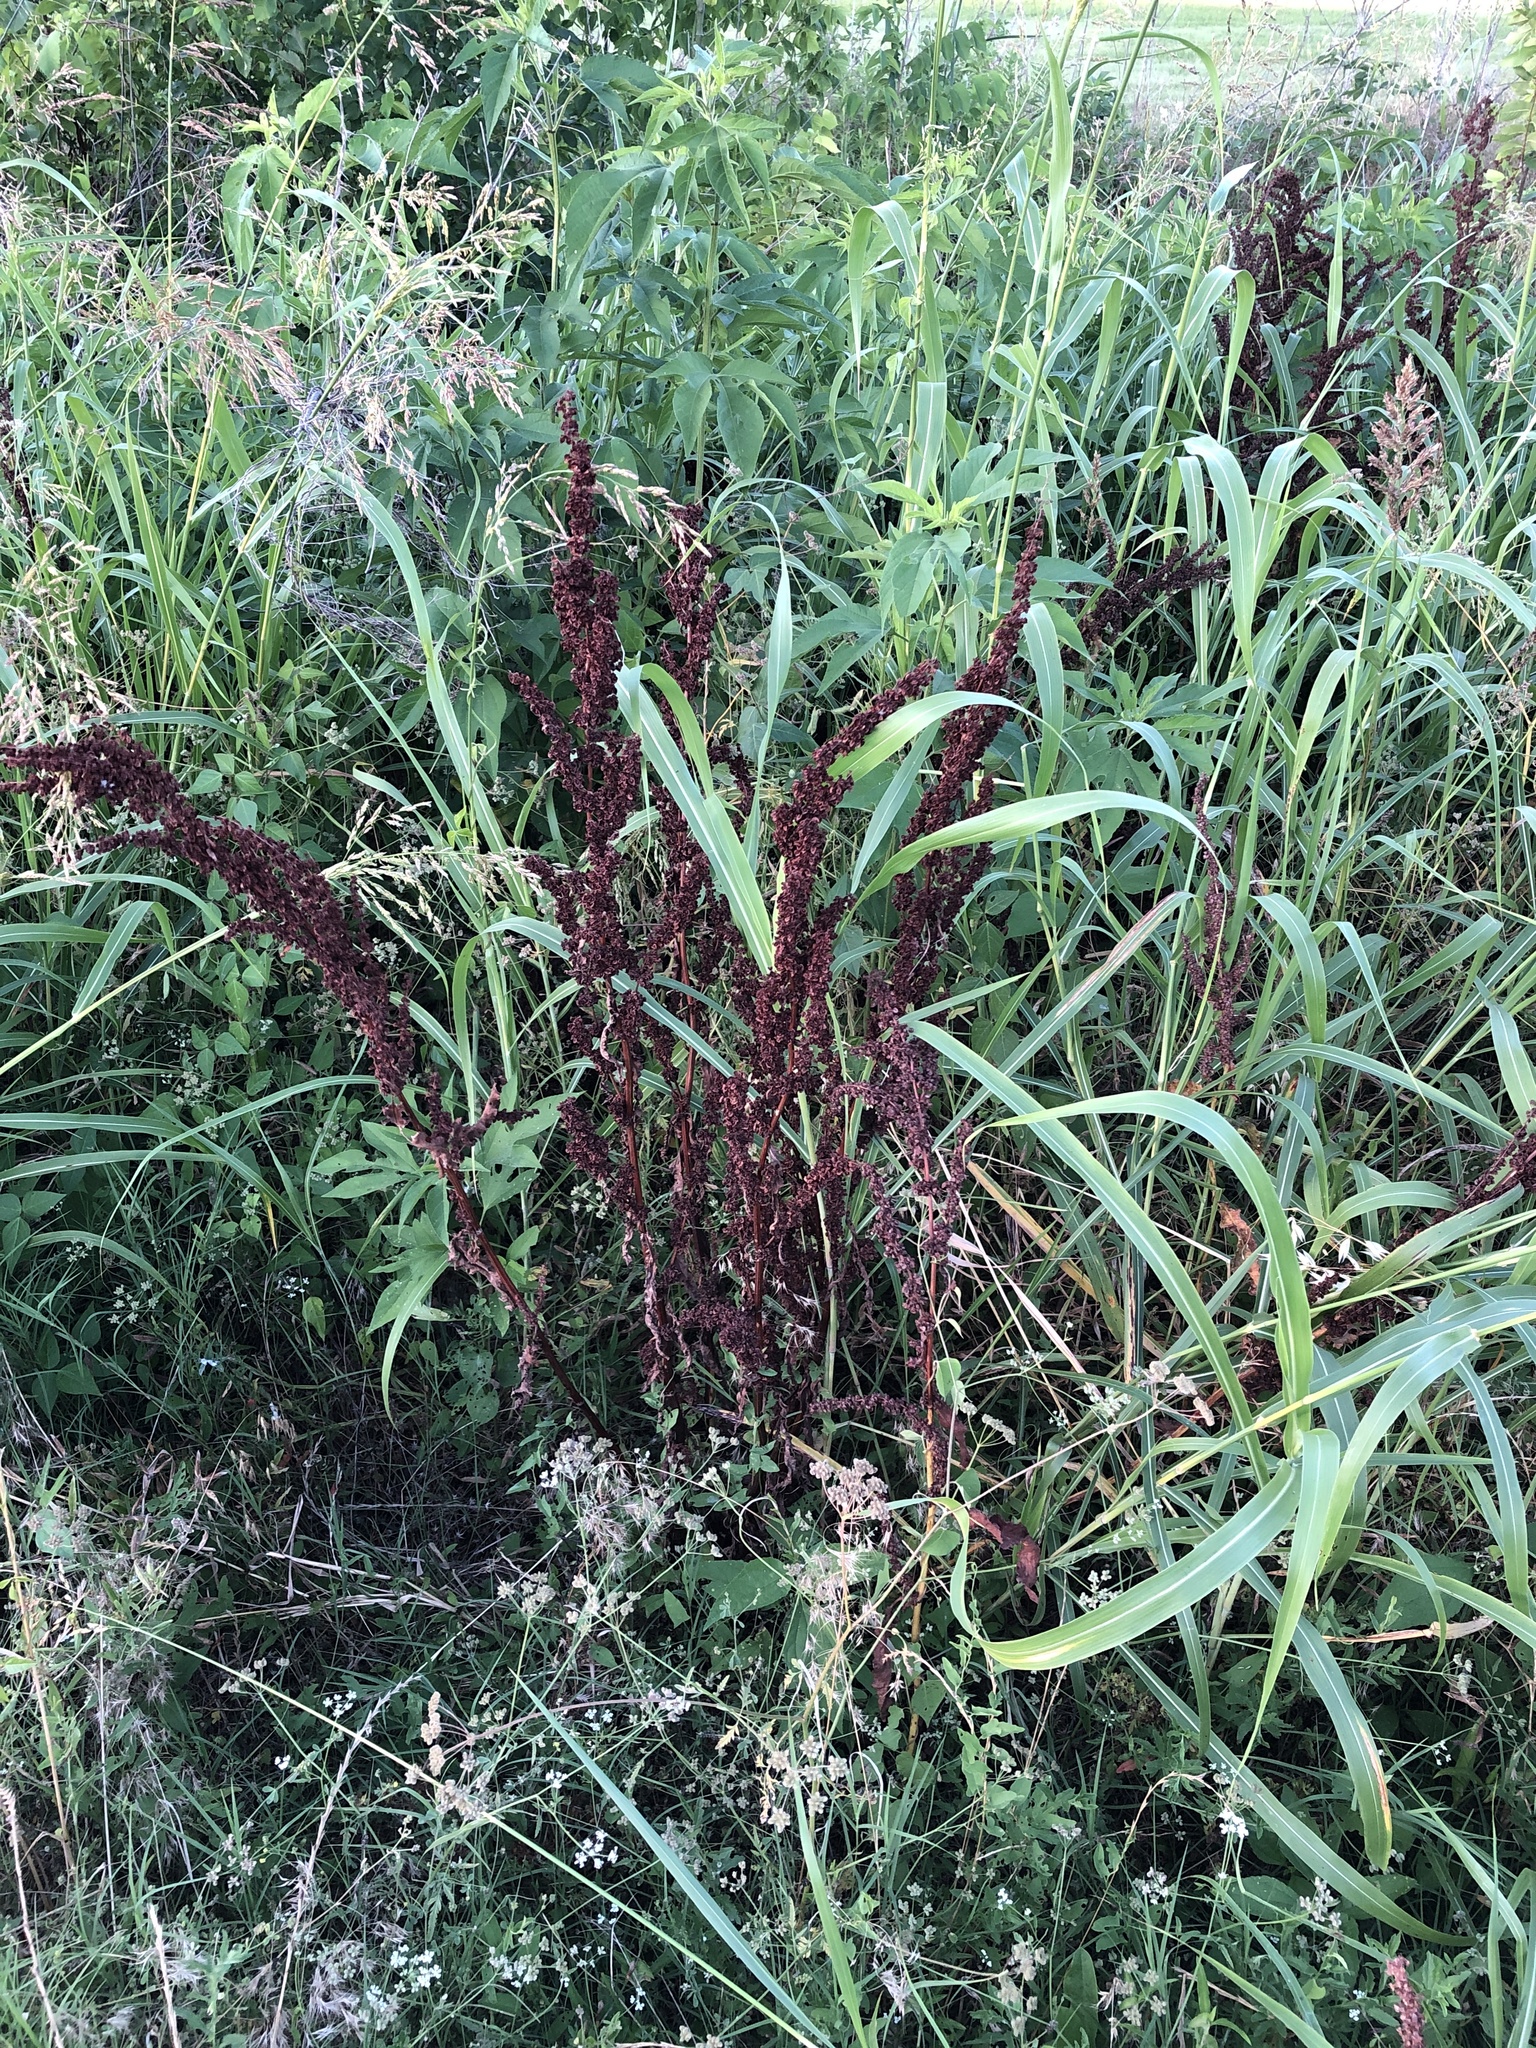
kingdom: Plantae
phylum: Tracheophyta
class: Magnoliopsida
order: Caryophyllales
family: Polygonaceae
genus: Rumex
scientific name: Rumex crispus
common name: Curled dock
